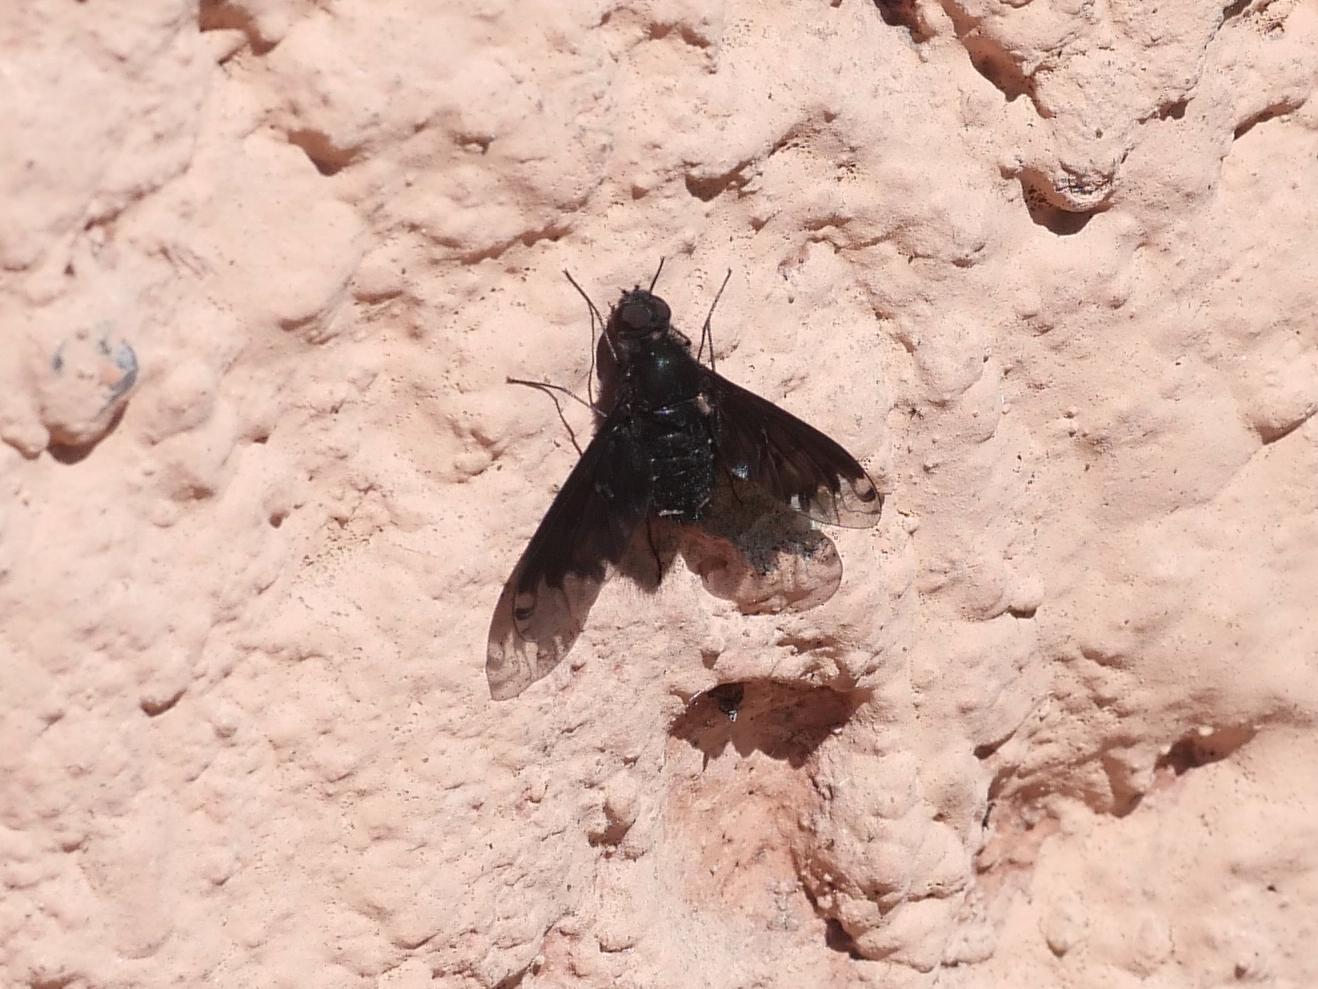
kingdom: Animalia
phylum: Arthropoda
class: Insecta
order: Diptera
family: Bombyliidae
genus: Anthrax
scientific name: Anthrax anthrax
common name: Anthracite bee-fly
